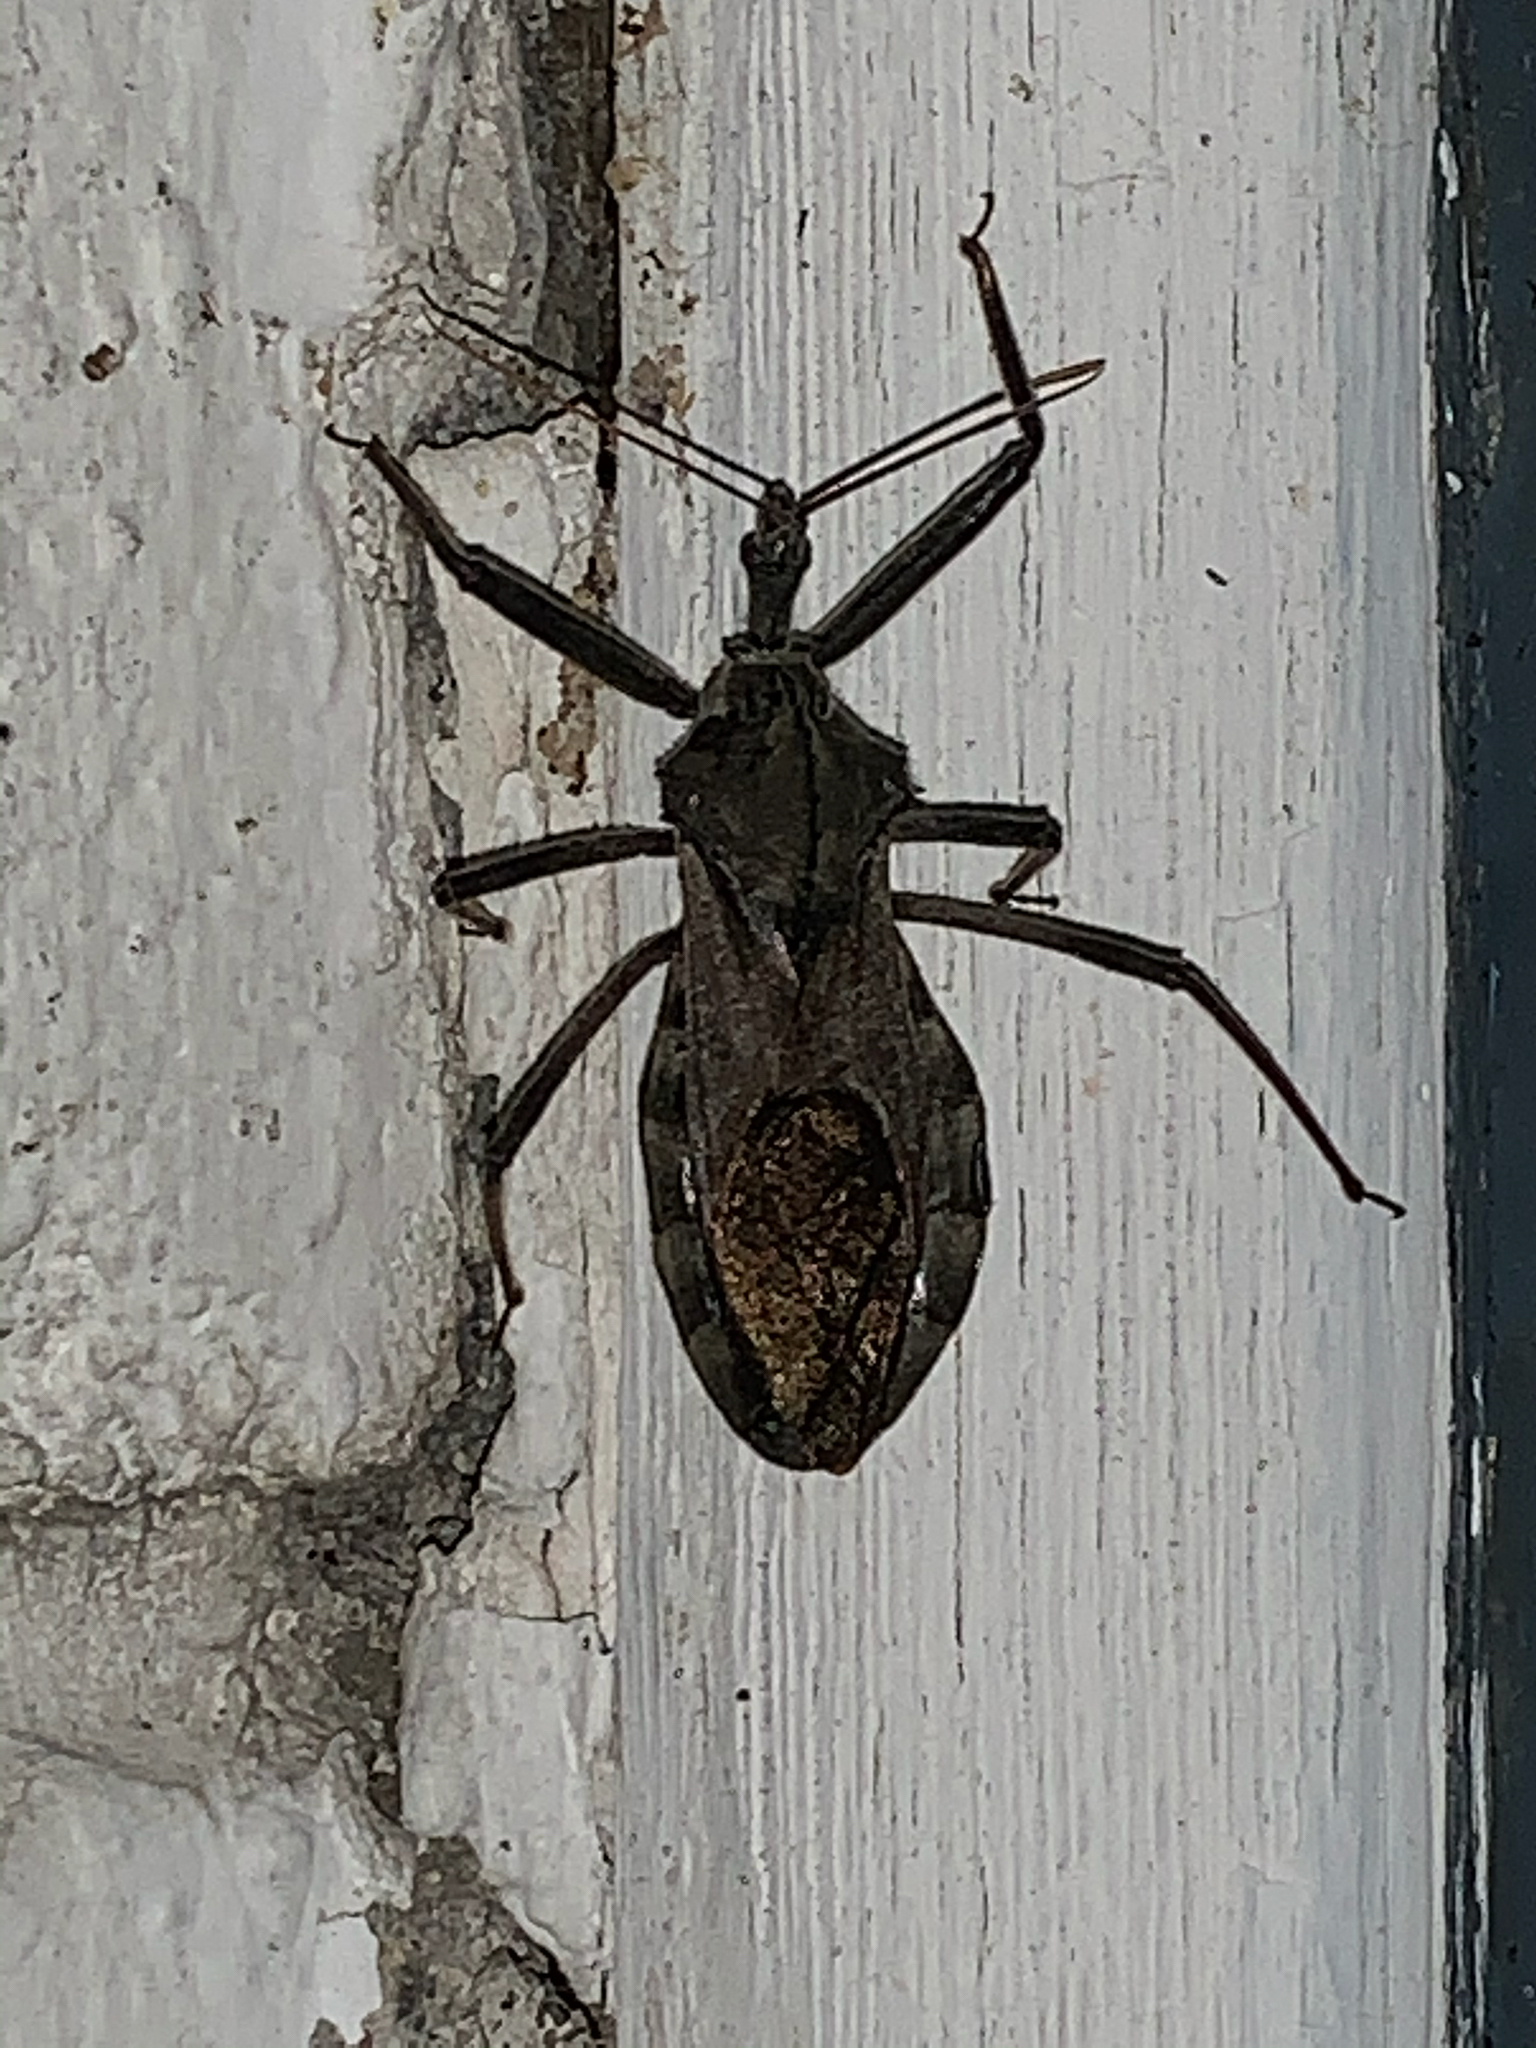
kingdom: Animalia
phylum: Arthropoda
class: Insecta
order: Hemiptera
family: Reduviidae
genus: Arilus
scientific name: Arilus cristatus
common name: North american wheel bug
